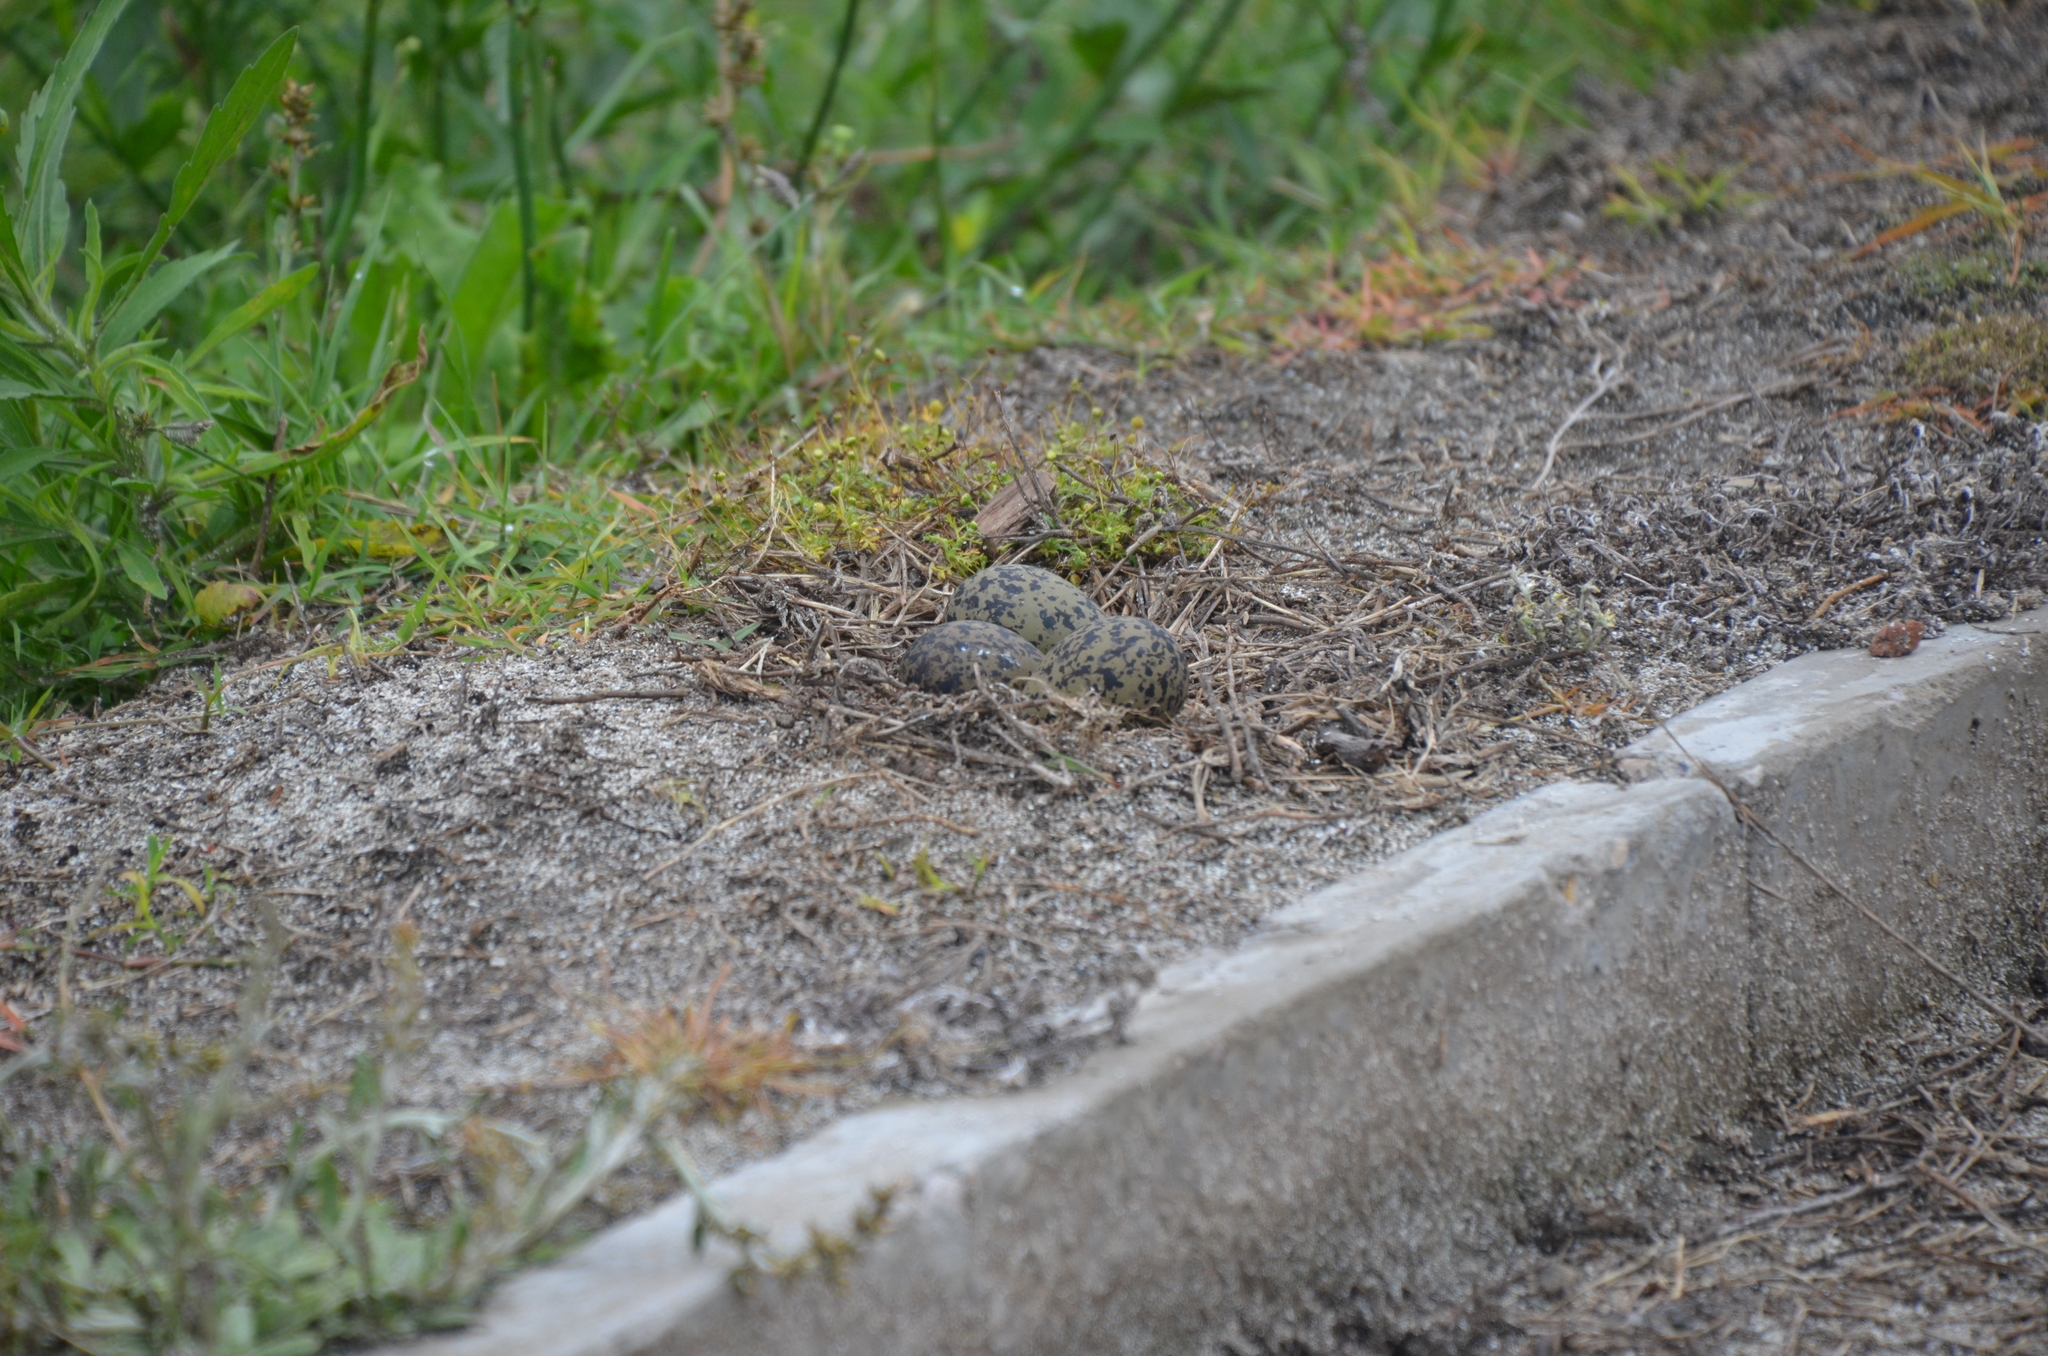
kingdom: Animalia
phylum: Chordata
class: Aves
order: Charadriiformes
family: Charadriidae
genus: Vanellus
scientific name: Vanellus chilensis
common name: Southern lapwing
